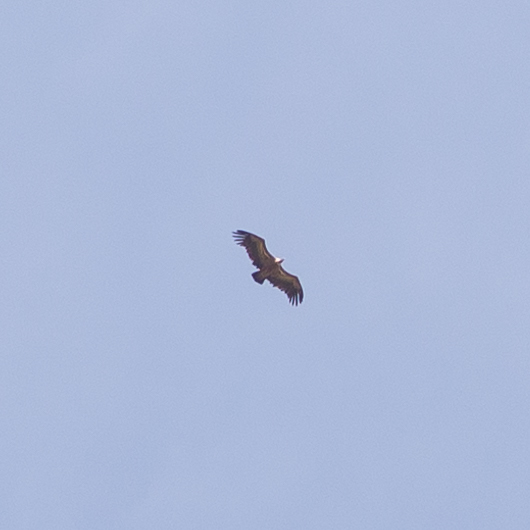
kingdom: Animalia
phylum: Chordata
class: Aves
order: Accipitriformes
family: Accipitridae
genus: Gyps
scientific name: Gyps fulvus
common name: Griffon vulture
